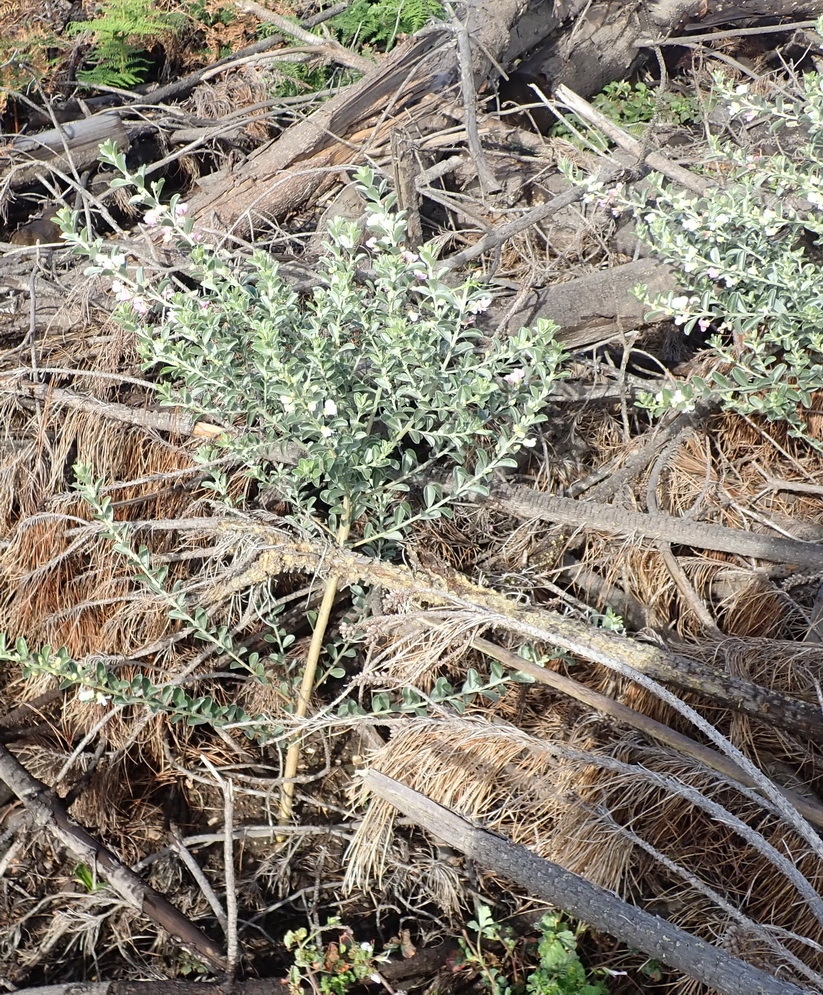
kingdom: Plantae
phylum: Tracheophyta
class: Magnoliopsida
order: Fabales
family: Fabaceae
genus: Podalyria
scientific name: Podalyria myrtillifolia
